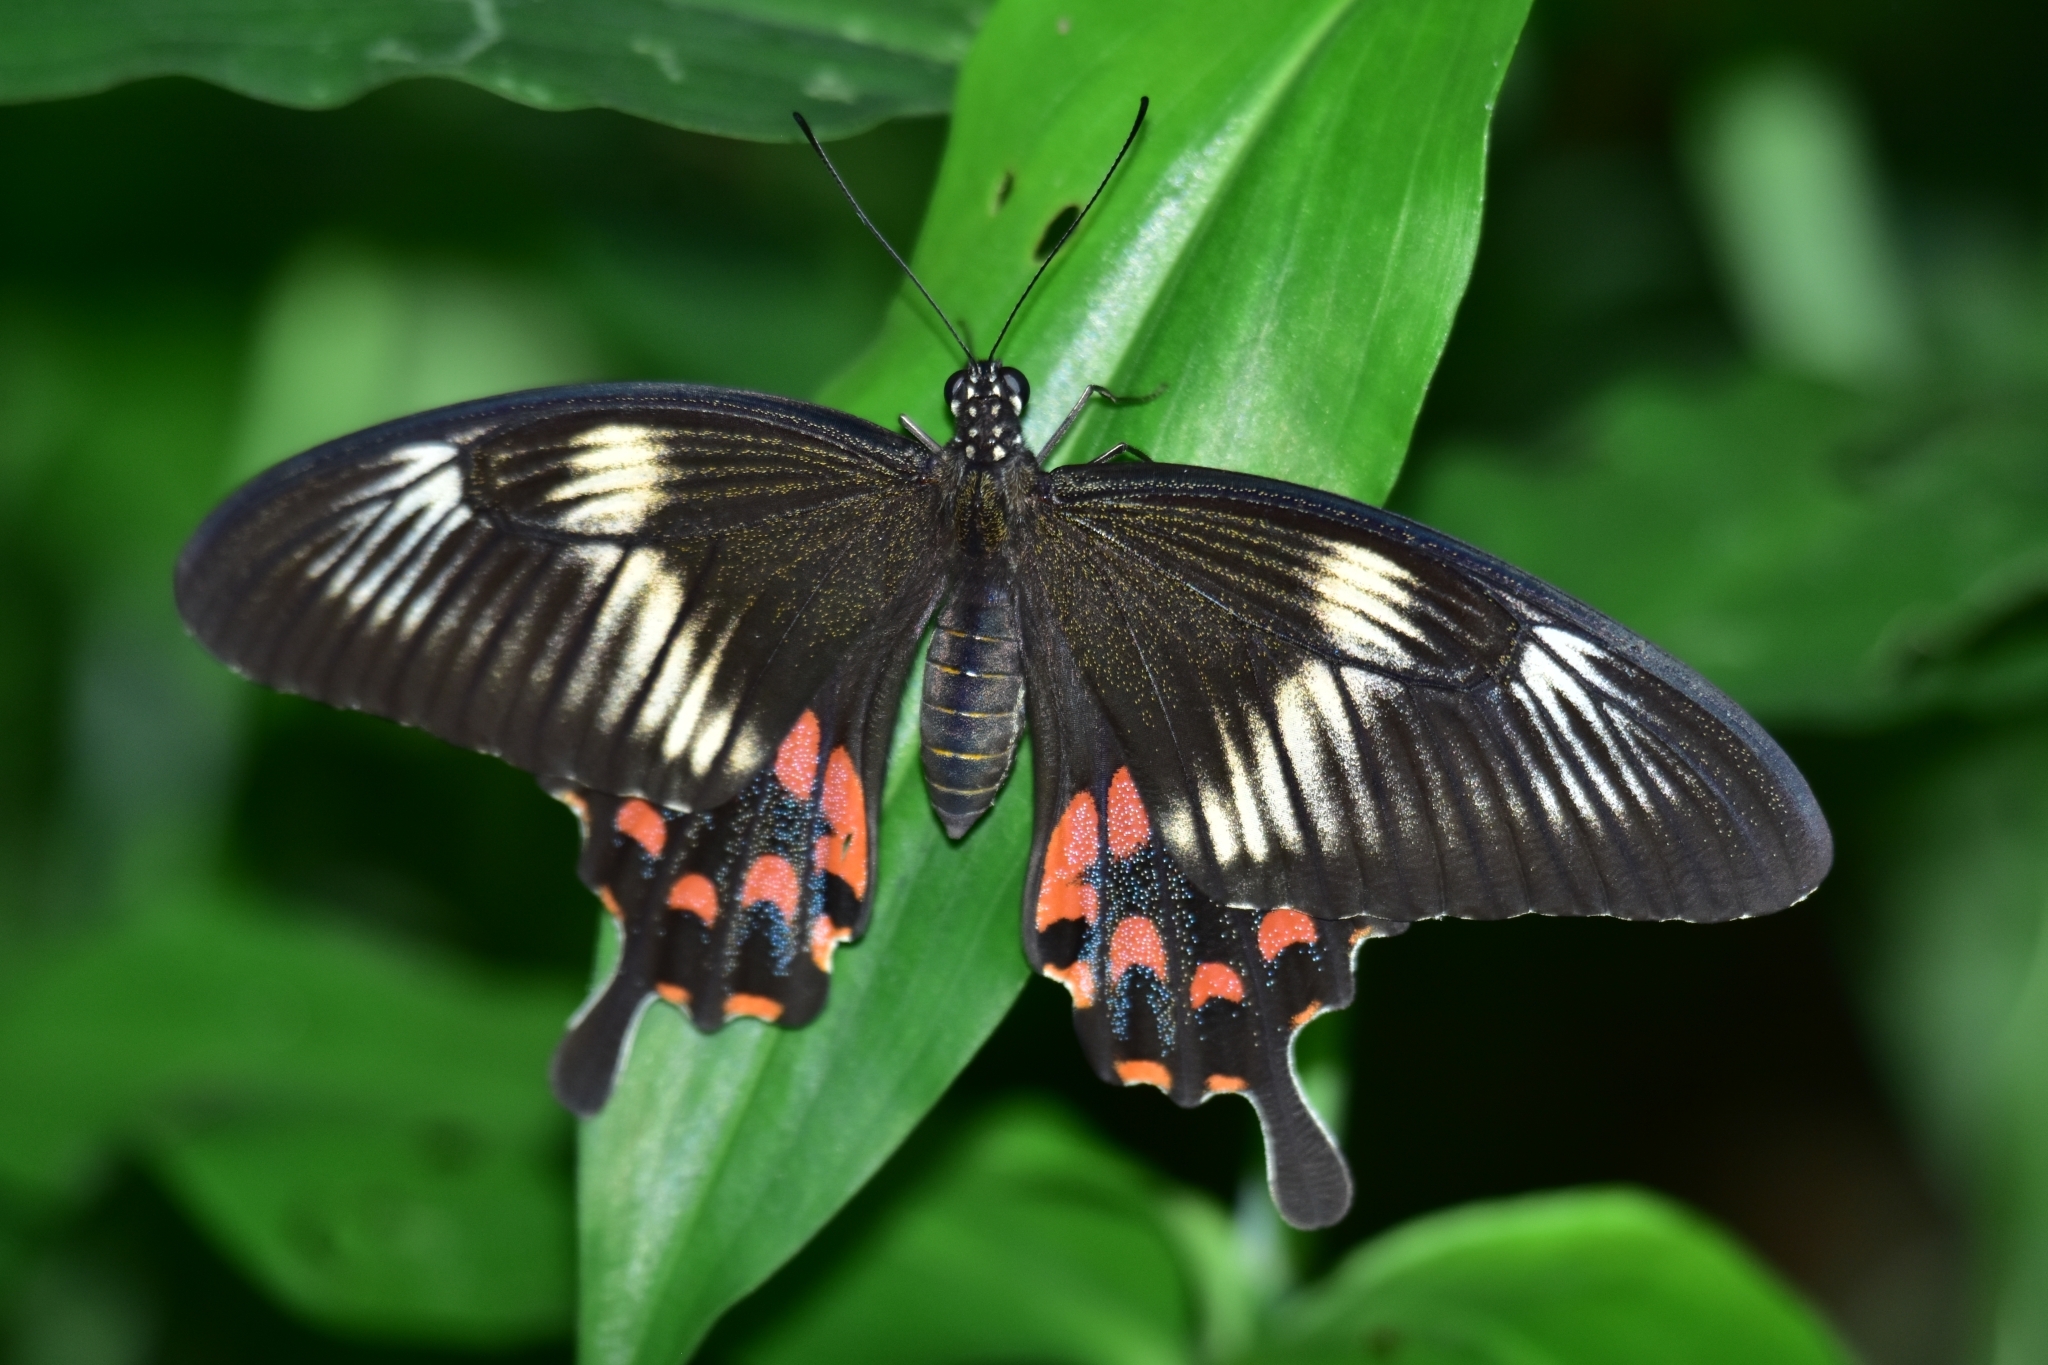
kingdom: Animalia
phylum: Arthropoda
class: Insecta
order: Lepidoptera
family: Papilionidae
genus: Papilio
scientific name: Papilio polytes
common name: Common mormon
